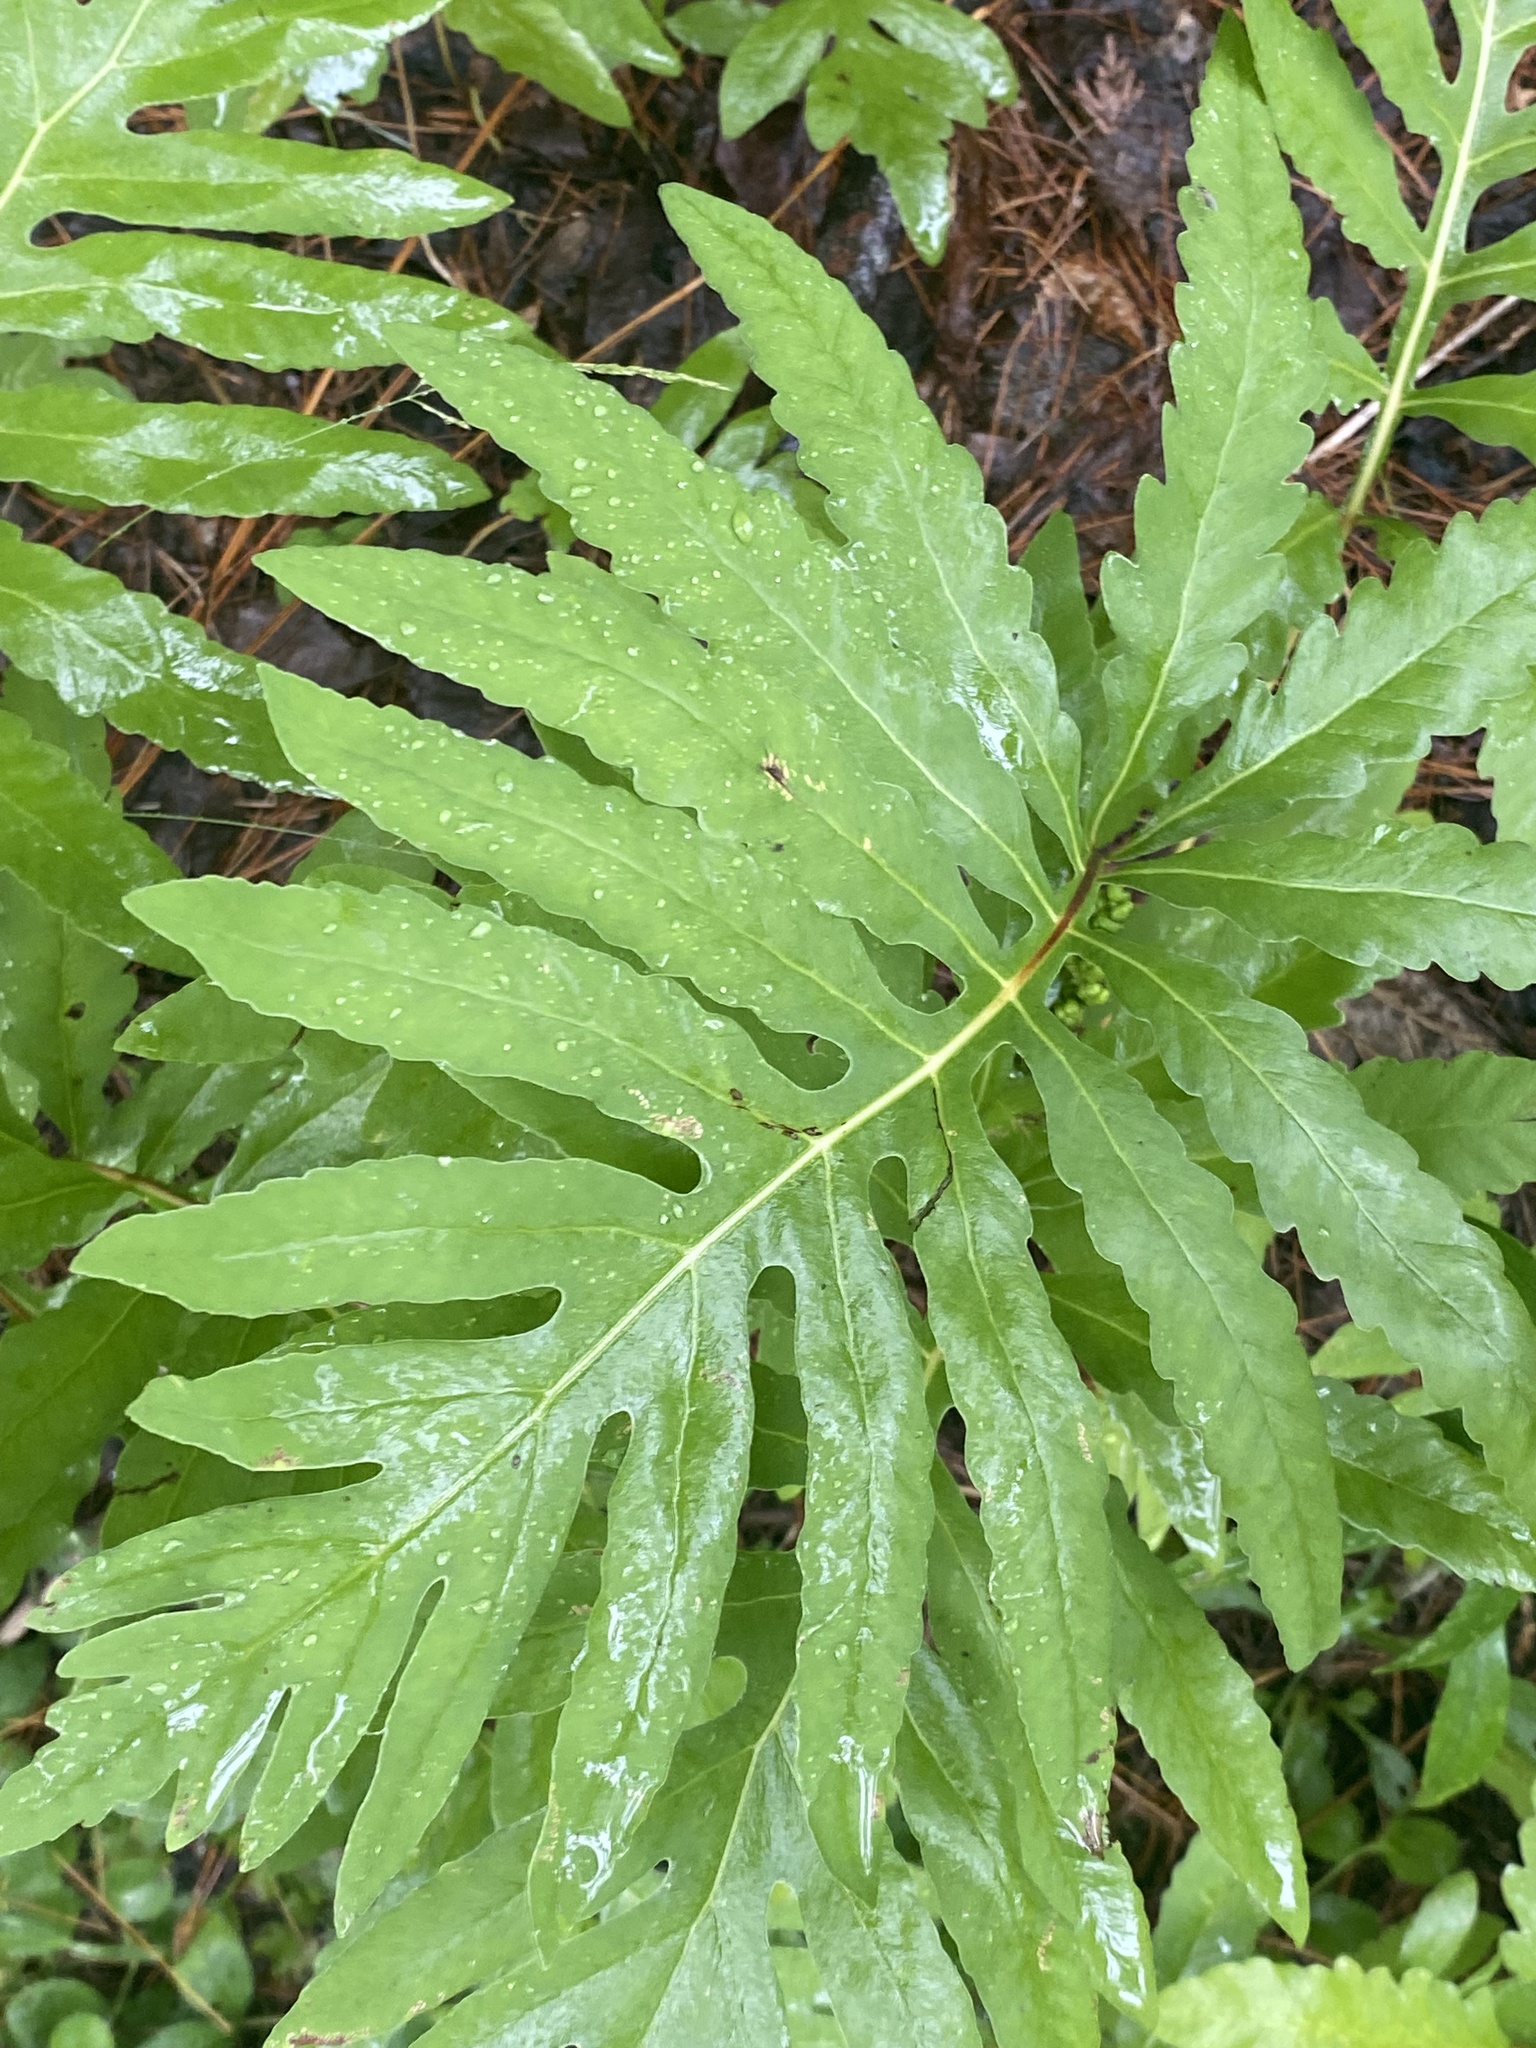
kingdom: Plantae
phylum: Tracheophyta
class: Polypodiopsida
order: Polypodiales
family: Onocleaceae
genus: Onoclea
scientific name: Onoclea sensibilis
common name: Sensitive fern
